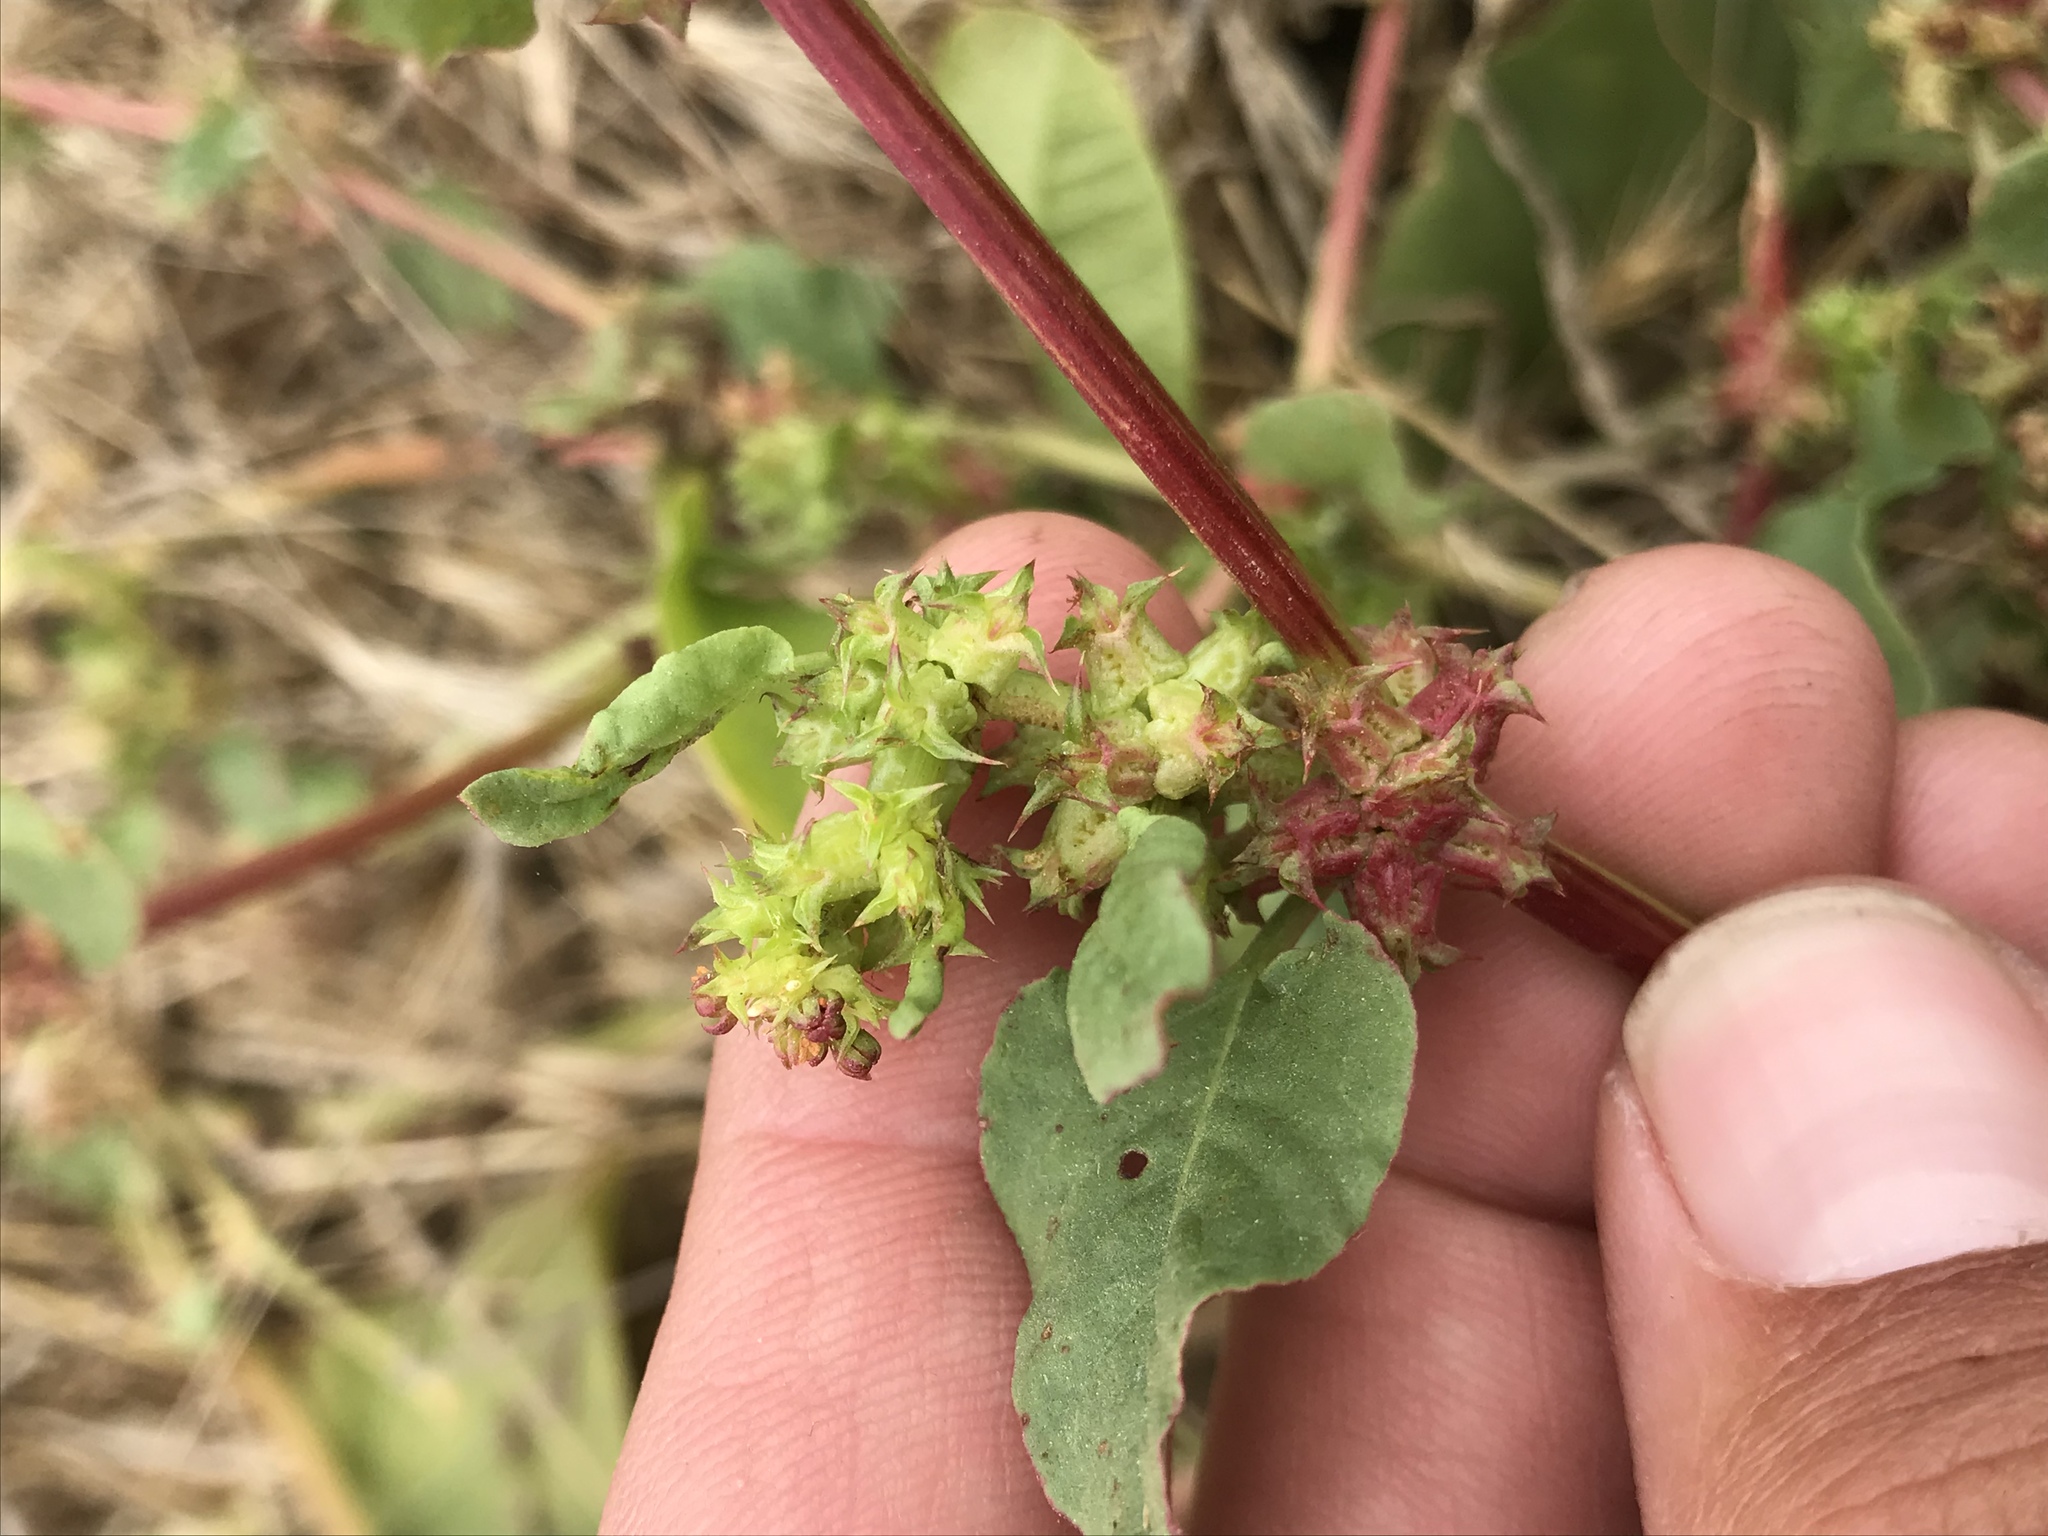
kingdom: Plantae
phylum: Tracheophyta
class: Magnoliopsida
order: Caryophyllales
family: Polygonaceae
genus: Rumex
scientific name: Rumex spinosus
